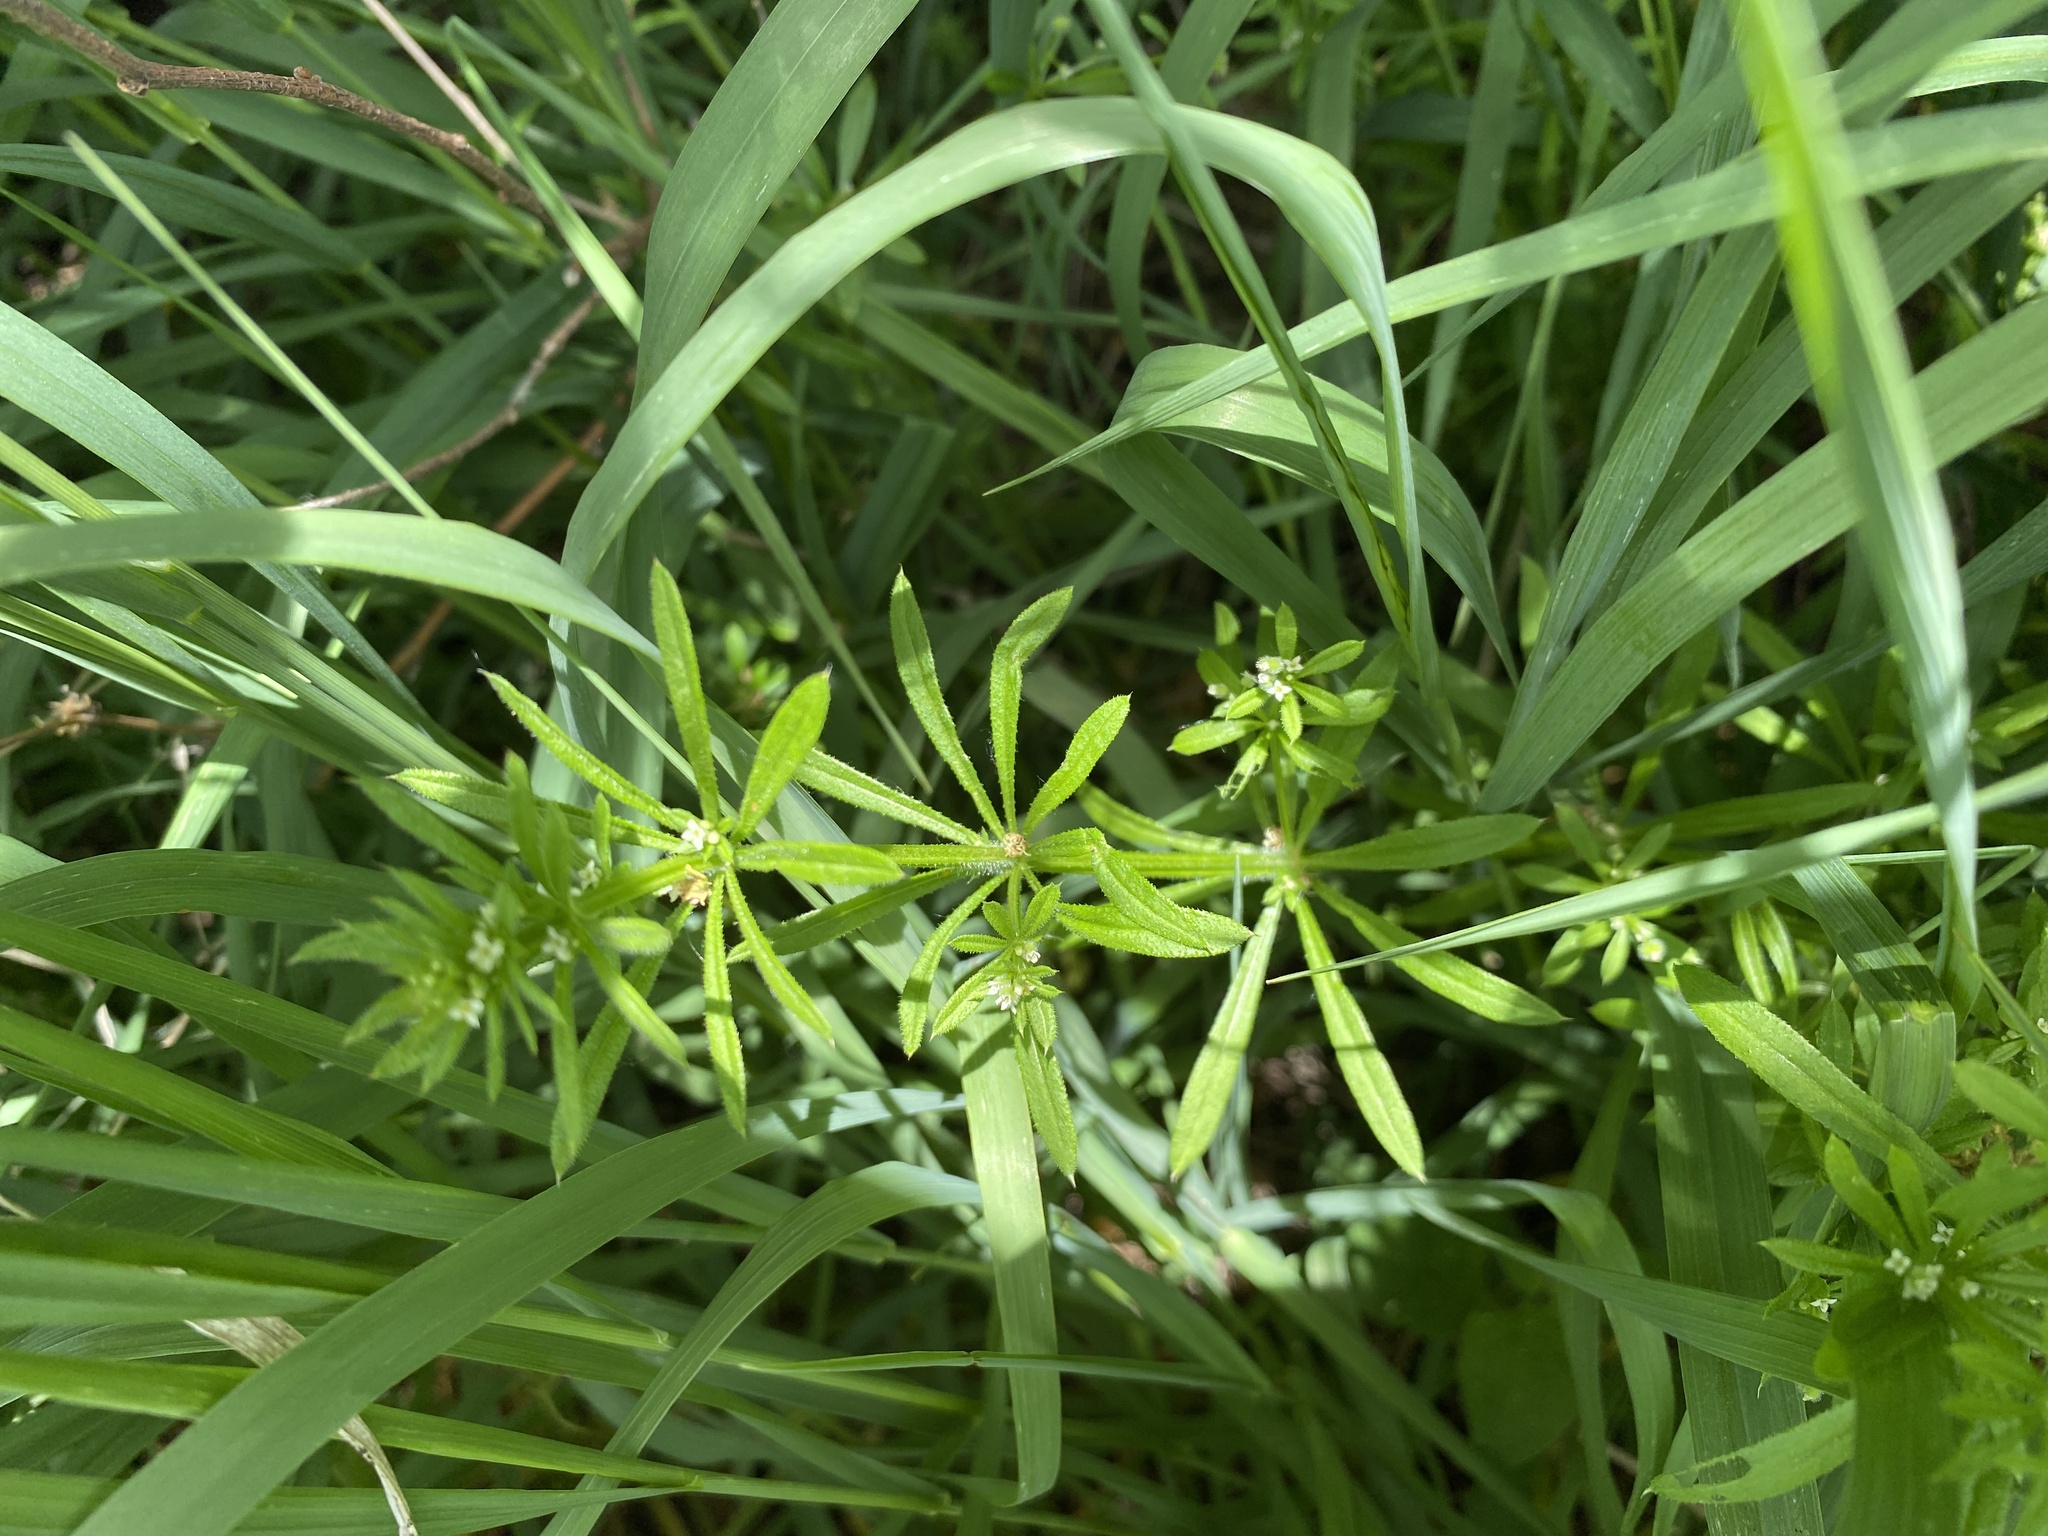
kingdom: Plantae
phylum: Tracheophyta
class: Magnoliopsida
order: Gentianales
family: Rubiaceae
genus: Galium
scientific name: Galium aparine
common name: Cleavers
